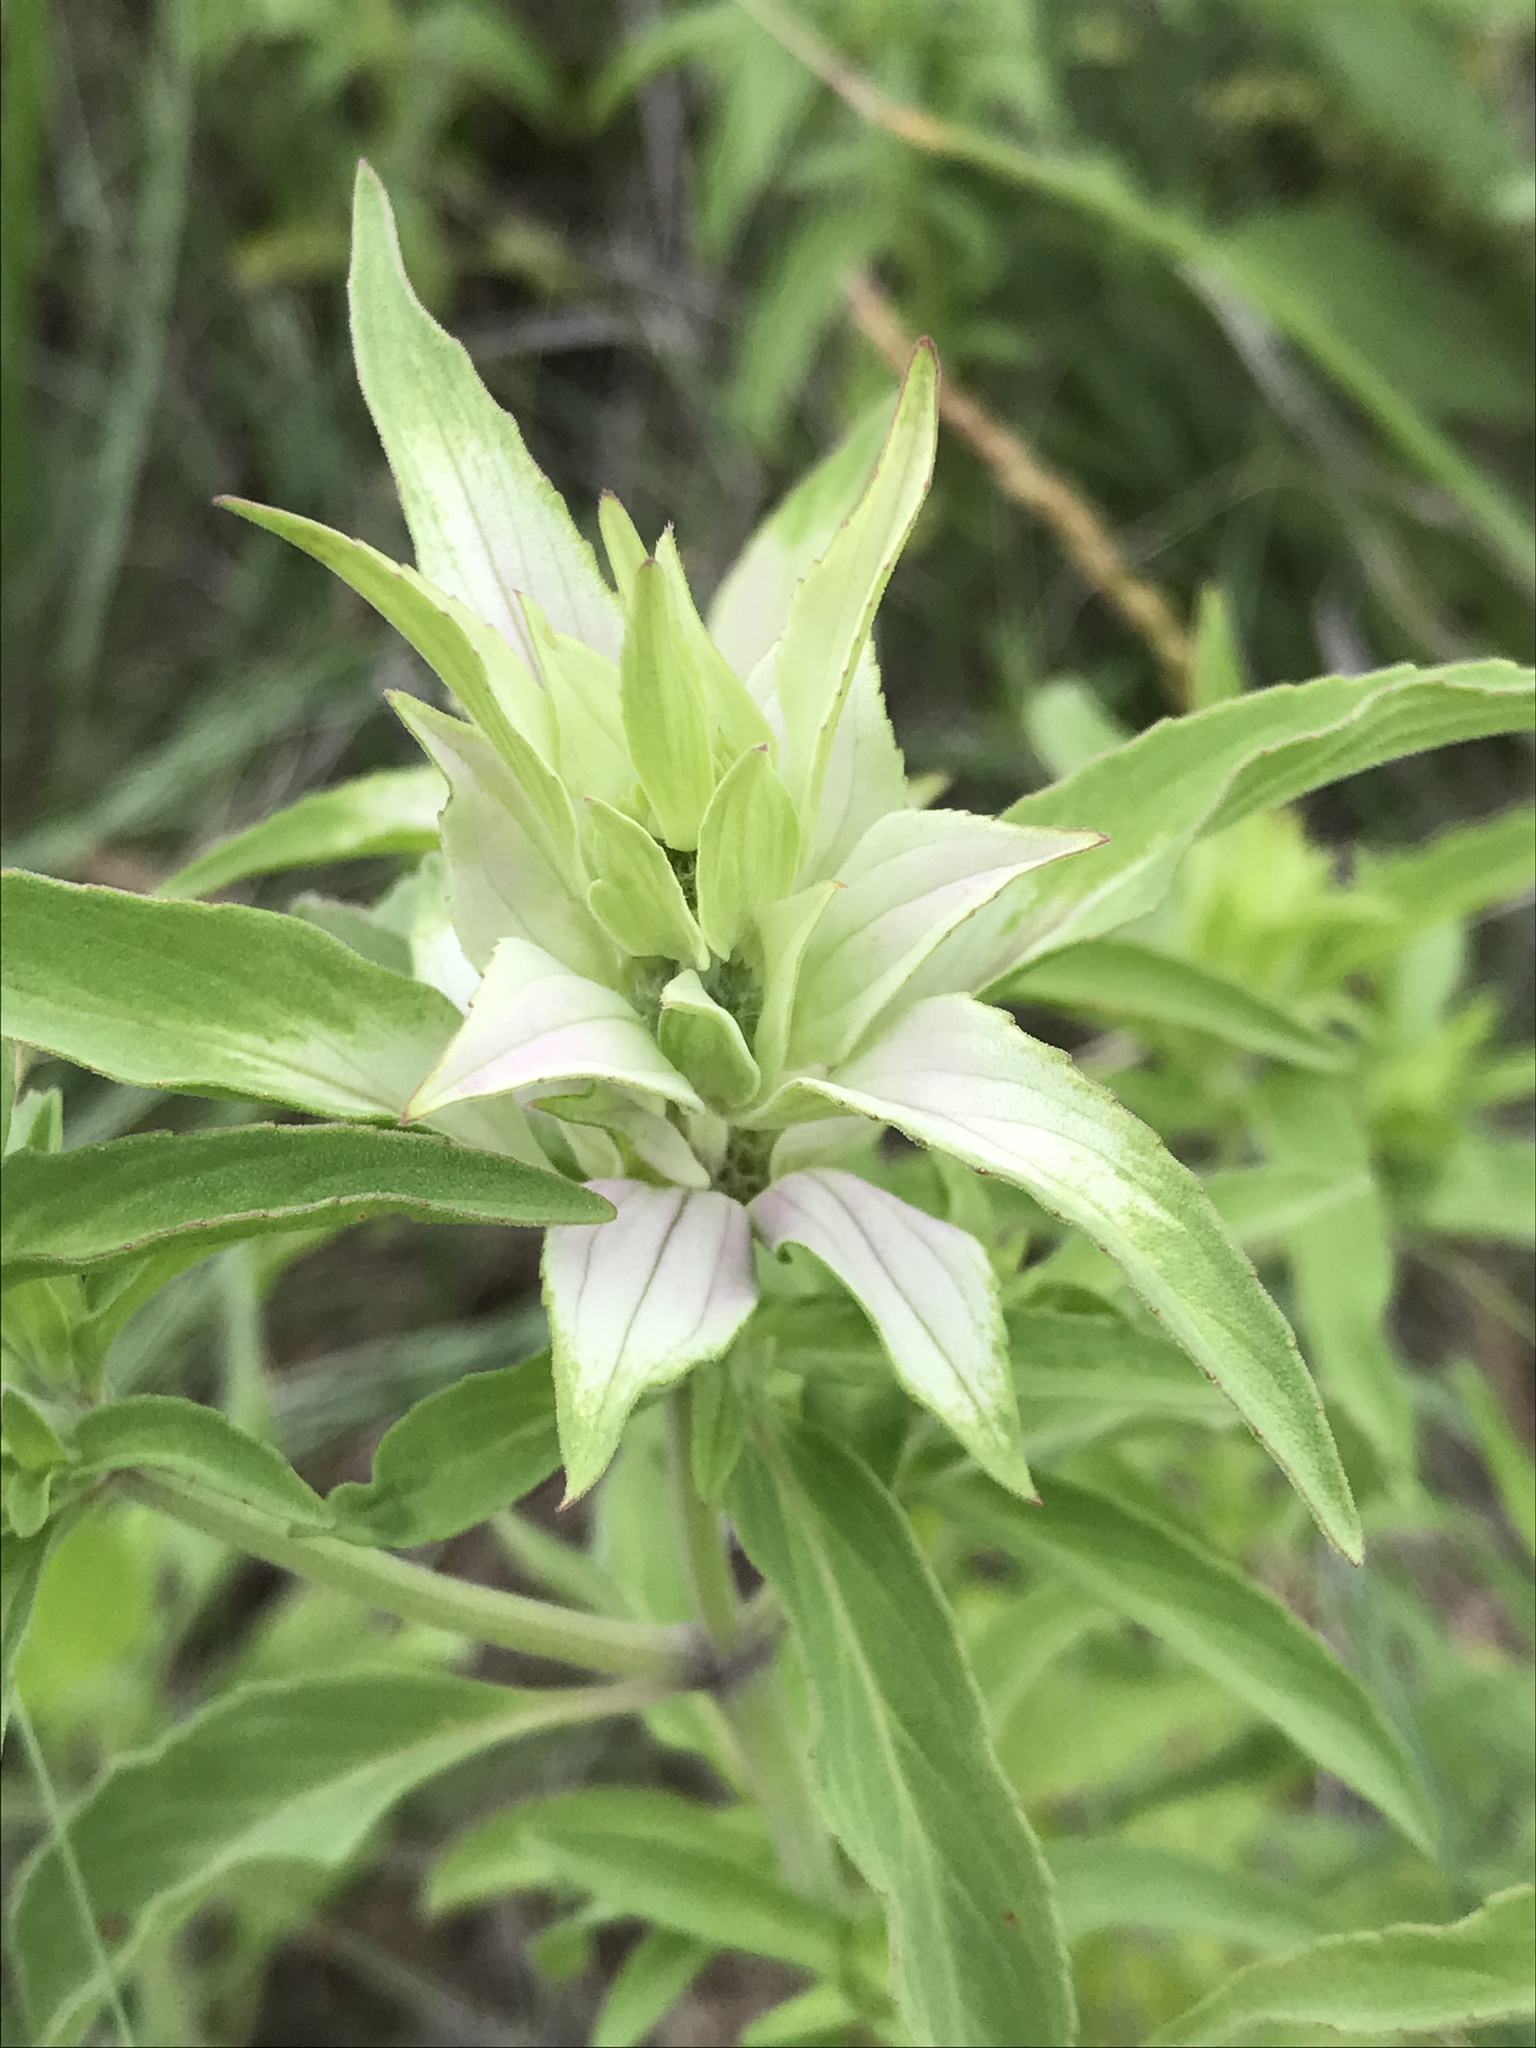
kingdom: Plantae
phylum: Tracheophyta
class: Magnoliopsida
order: Lamiales
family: Lamiaceae
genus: Monarda
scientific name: Monarda punctata
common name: Dotted monarda
